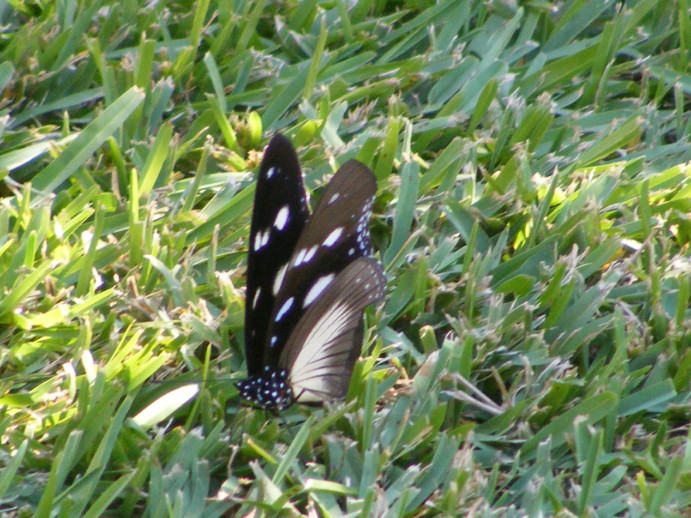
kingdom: Animalia
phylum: Arthropoda
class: Insecta
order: Lepidoptera
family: Nymphalidae
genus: Hypolimnas
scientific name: Hypolimnas dubius
